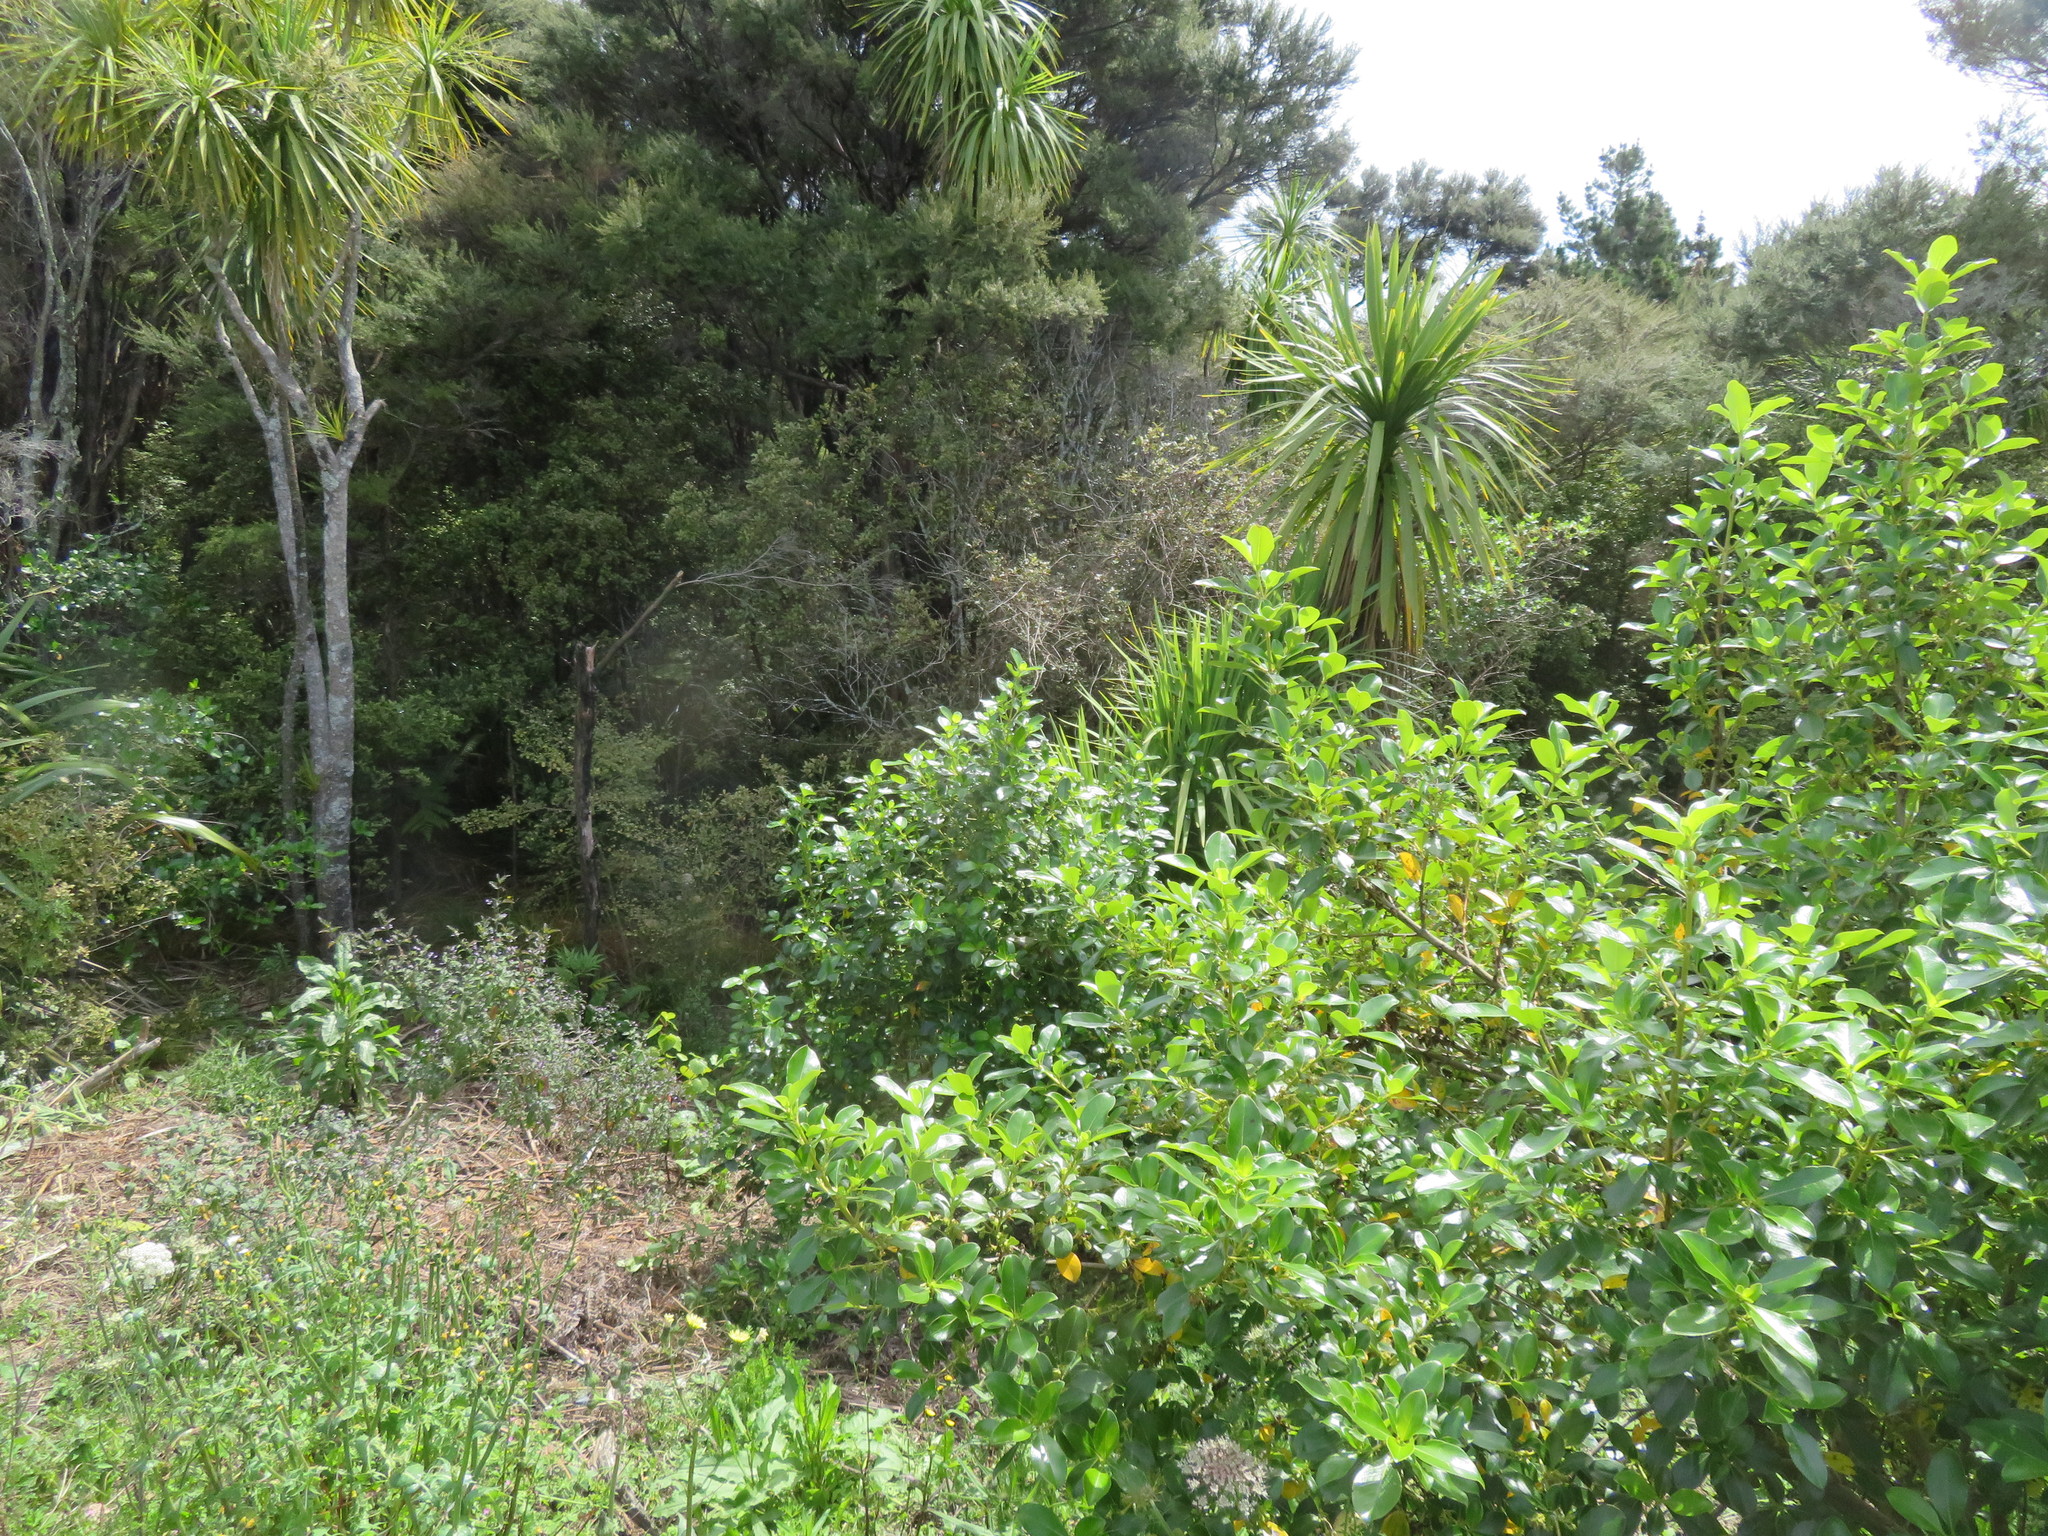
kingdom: Plantae
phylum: Tracheophyta
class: Magnoliopsida
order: Gentianales
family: Rubiaceae
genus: Coprosma
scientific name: Coprosma robusta
